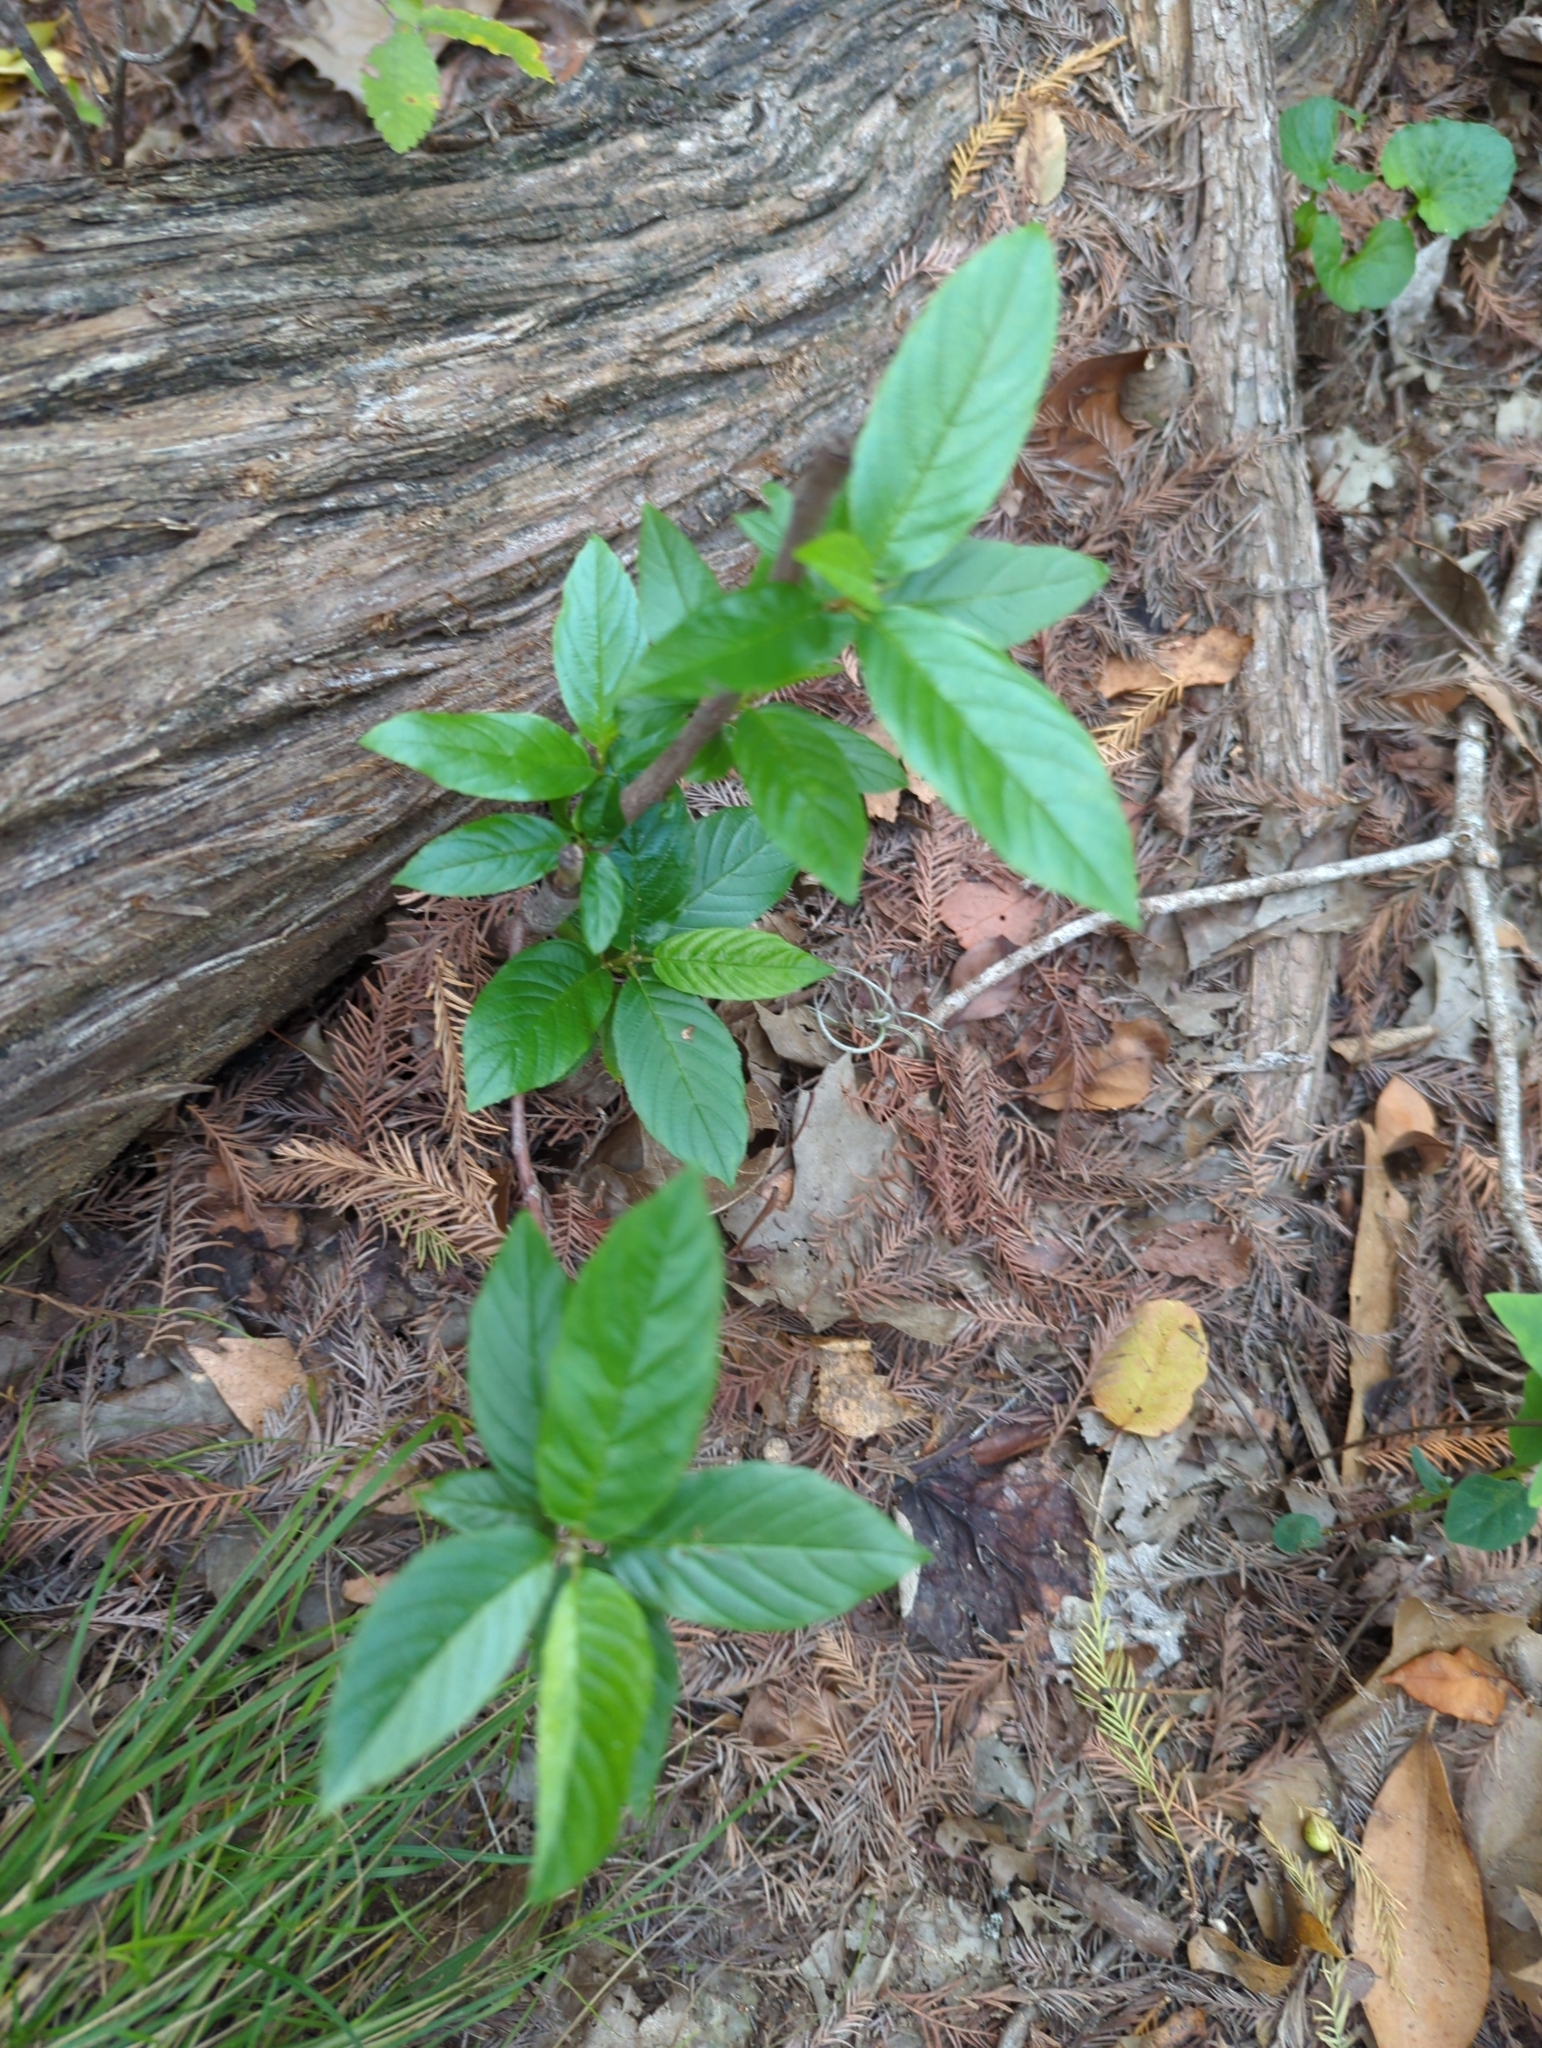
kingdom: Plantae
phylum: Tracheophyta
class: Magnoliopsida
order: Rosales
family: Rhamnaceae
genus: Frangula
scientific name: Frangula caroliniana
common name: Carolina buckthorn
